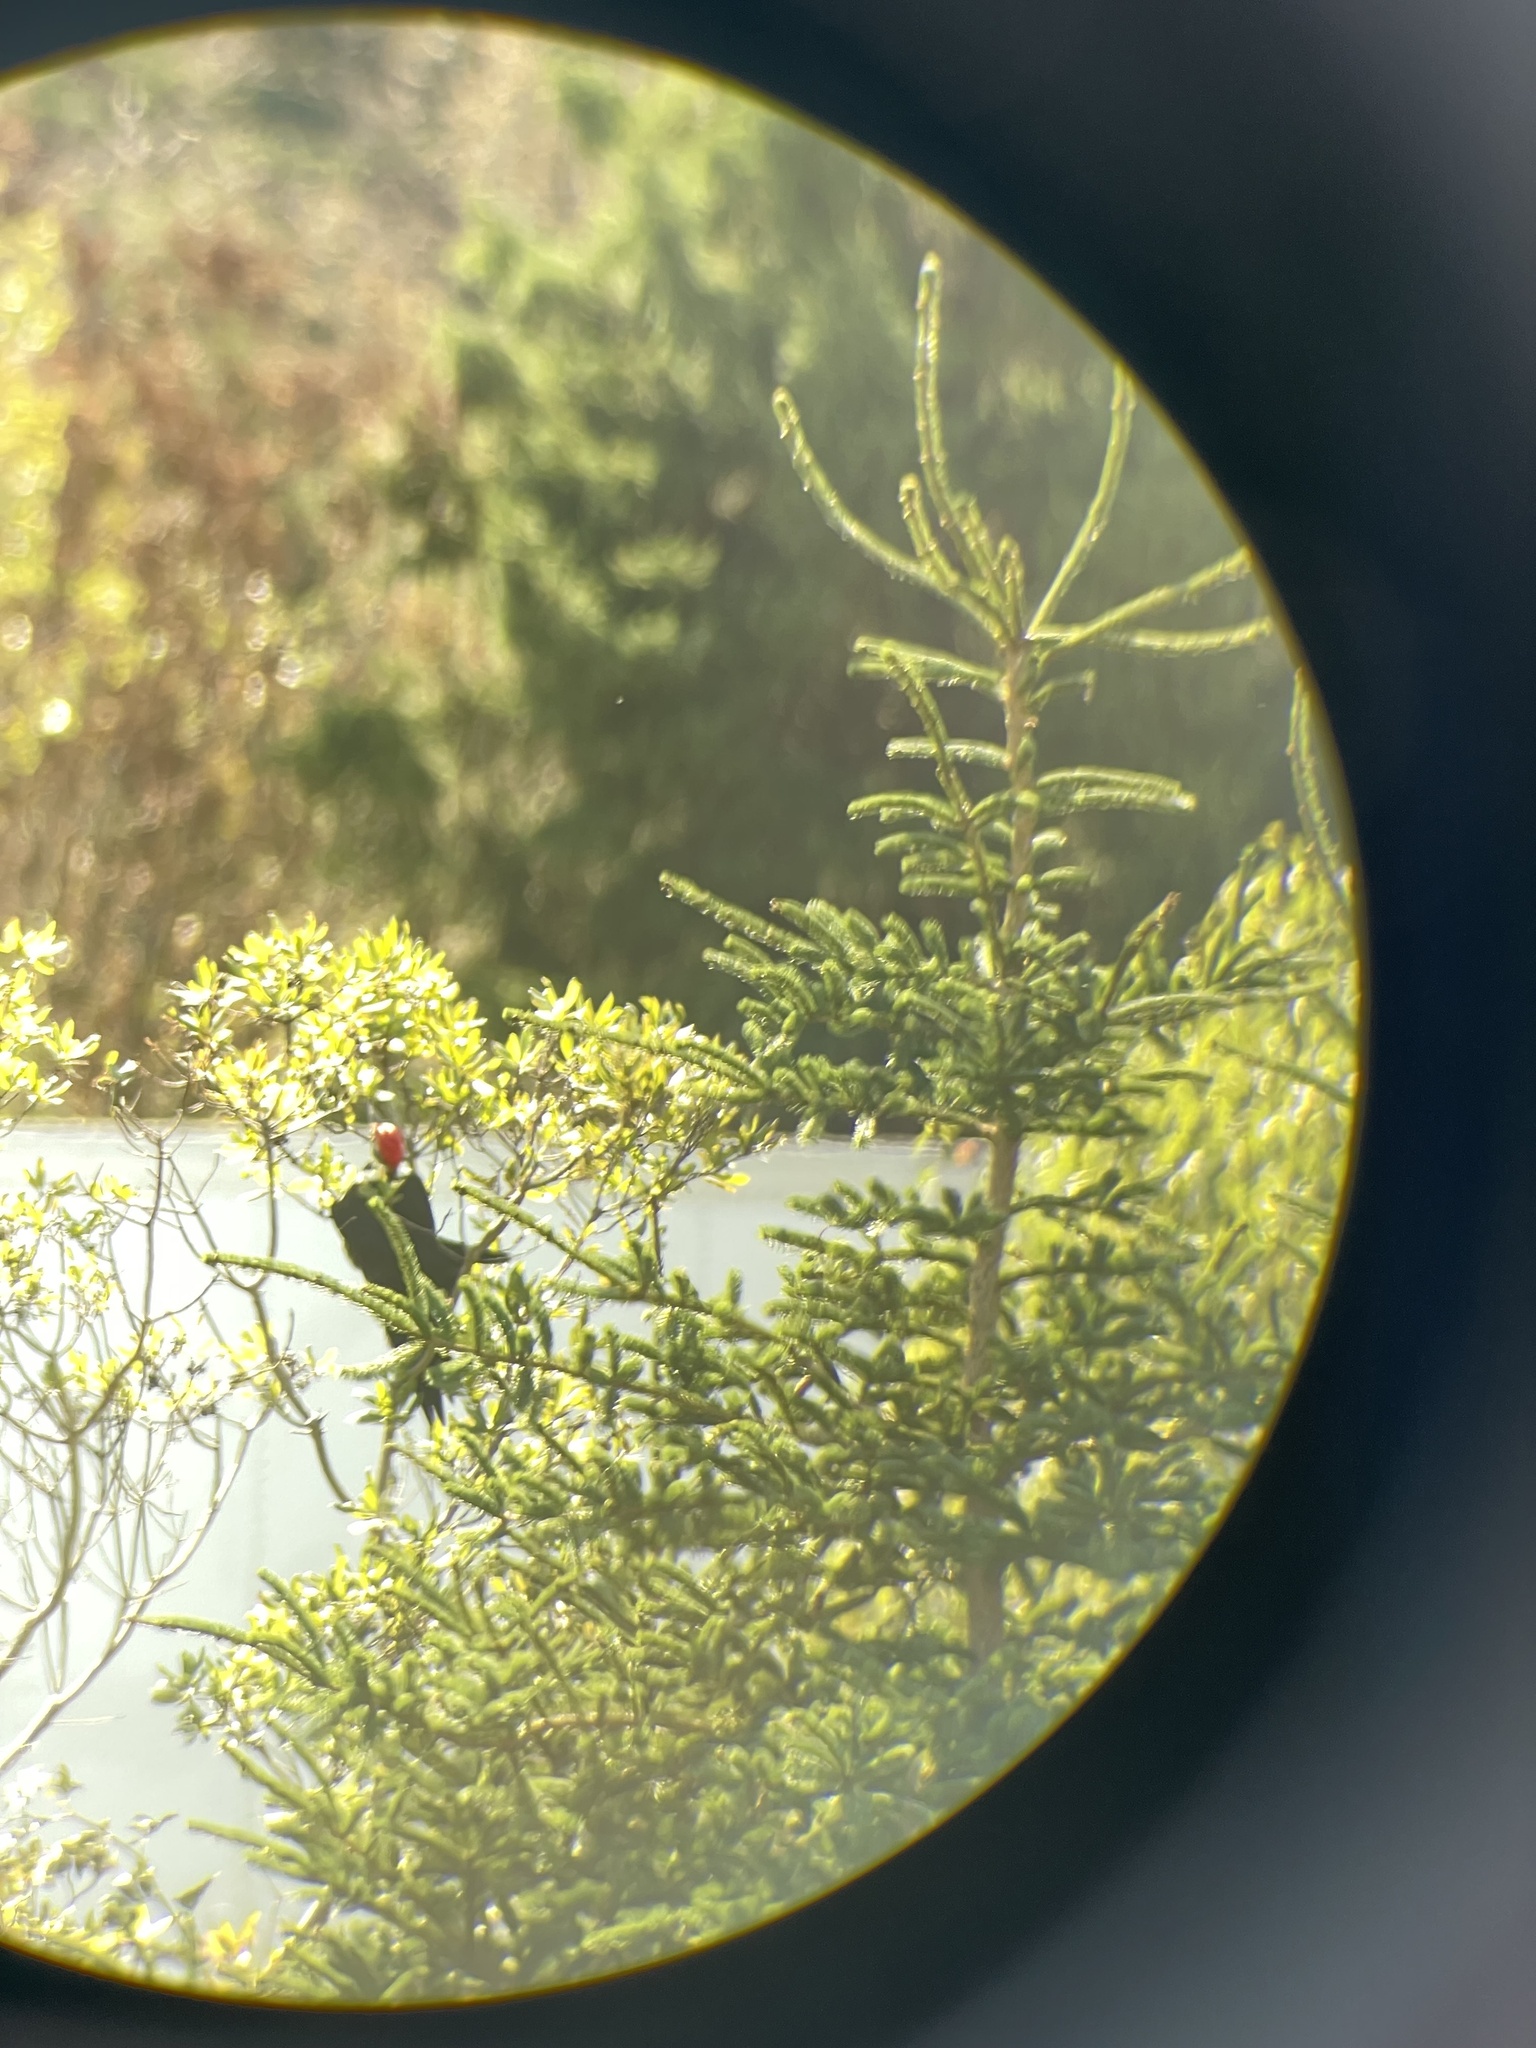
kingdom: Animalia
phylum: Chordata
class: Aves
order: Piciformes
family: Picidae
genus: Dryocopus
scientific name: Dryocopus pileatus
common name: Pileated woodpecker
